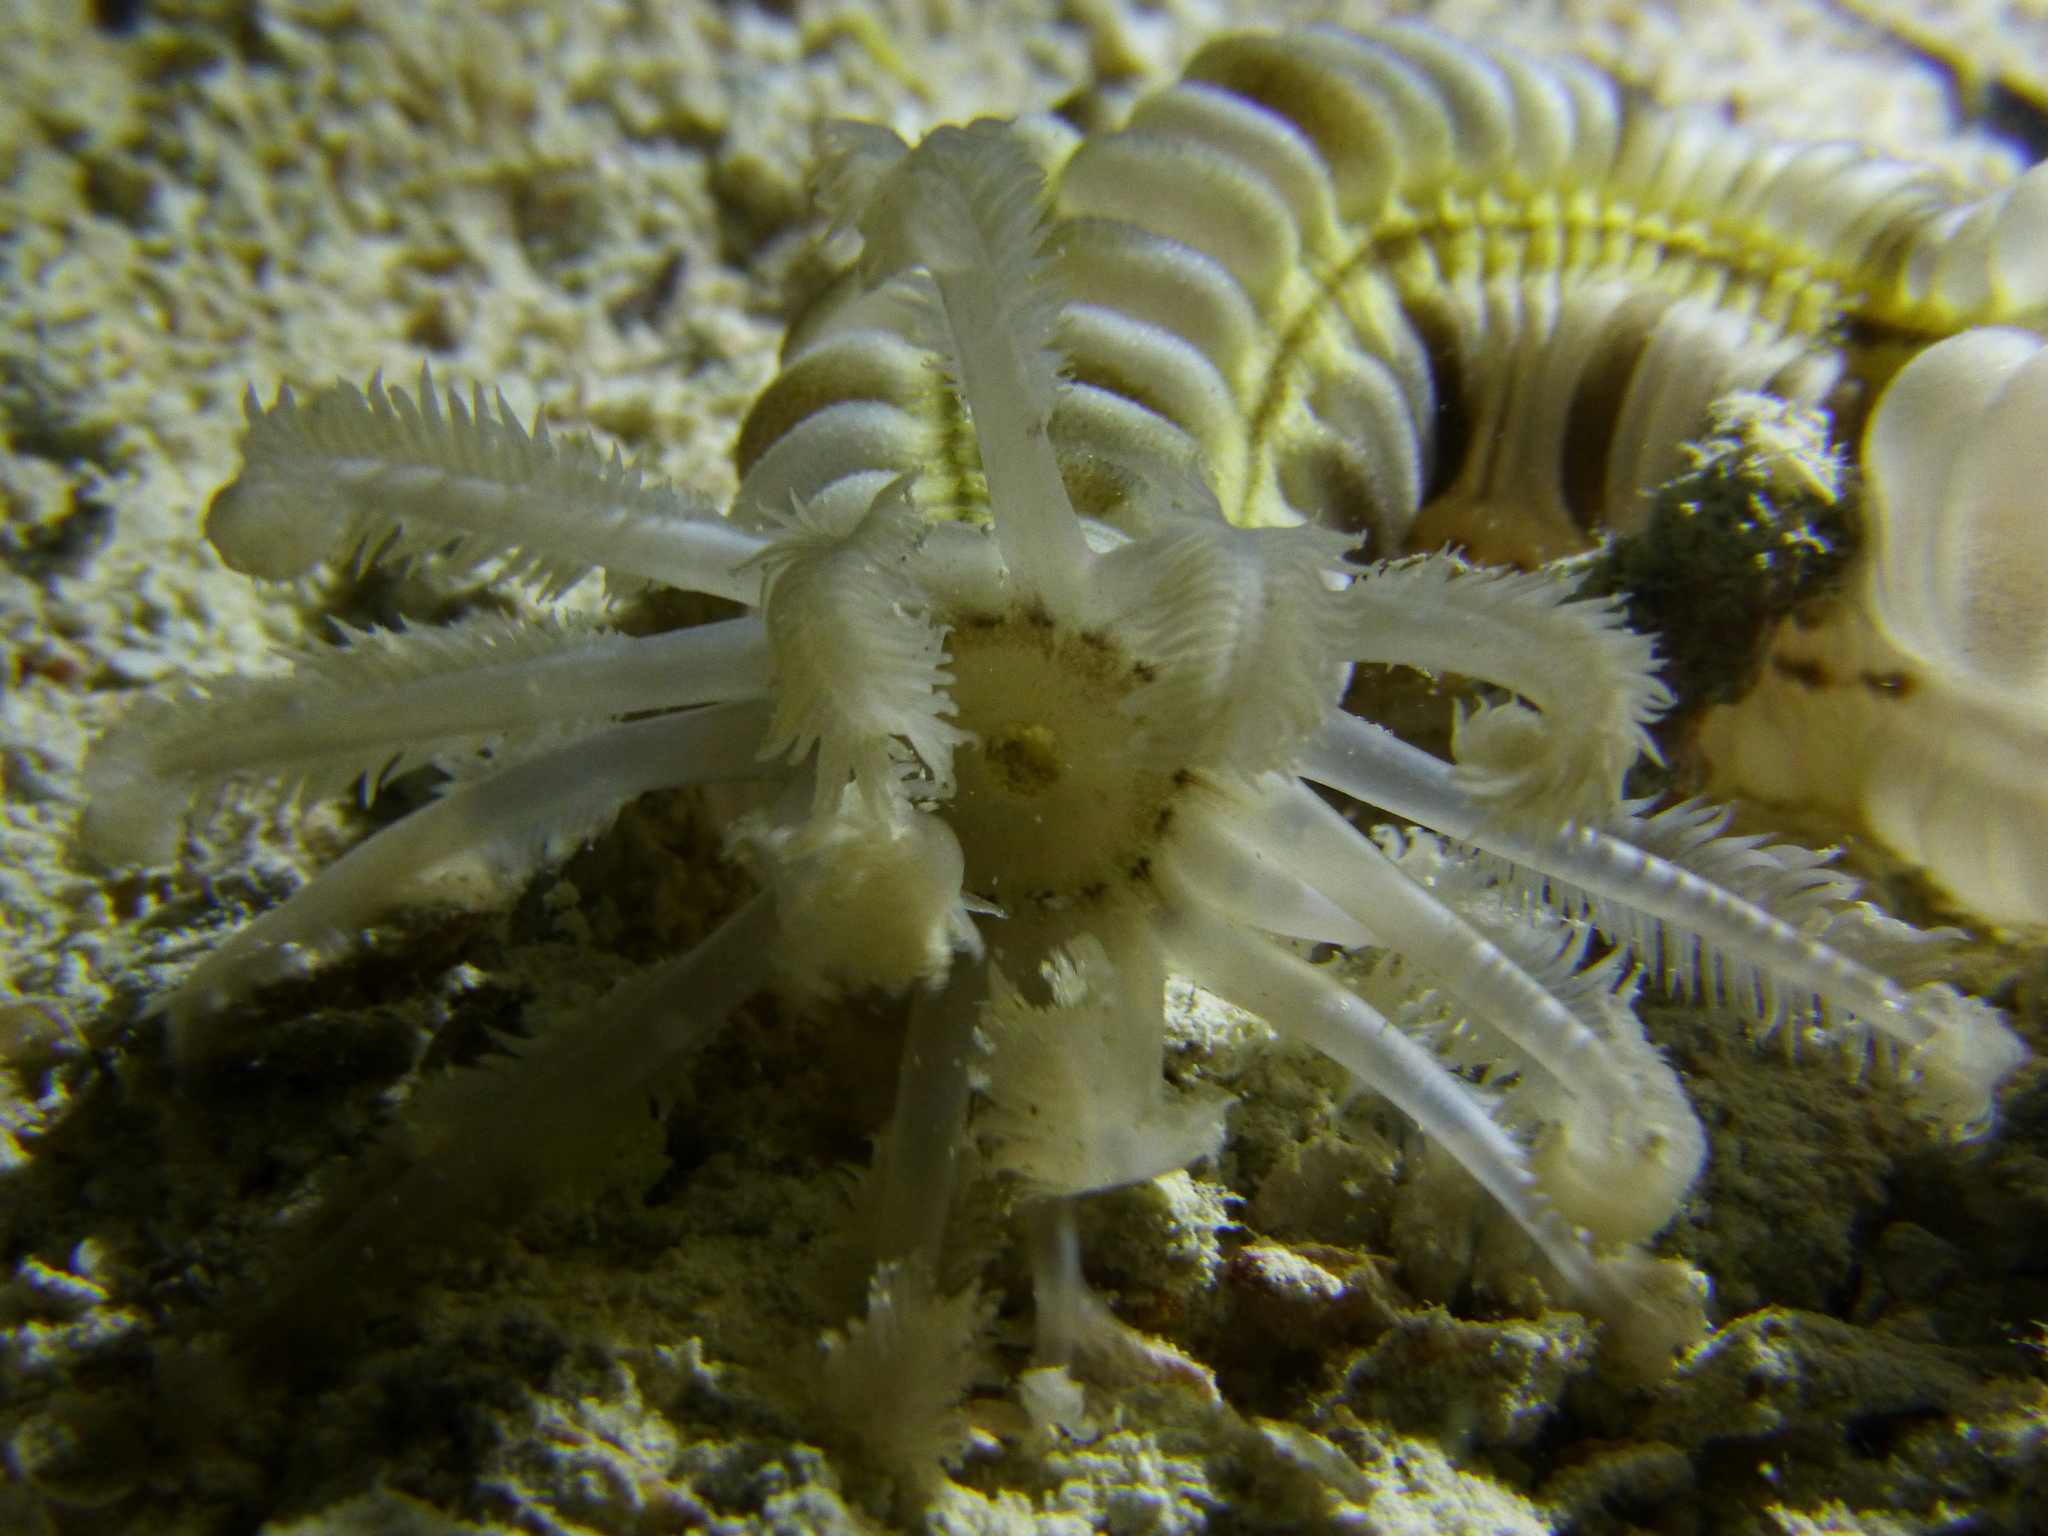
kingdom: Animalia
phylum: Echinodermata
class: Holothuroidea
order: Apodida
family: Synaptidae
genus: Euapta
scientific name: Euapta godeffroyi
